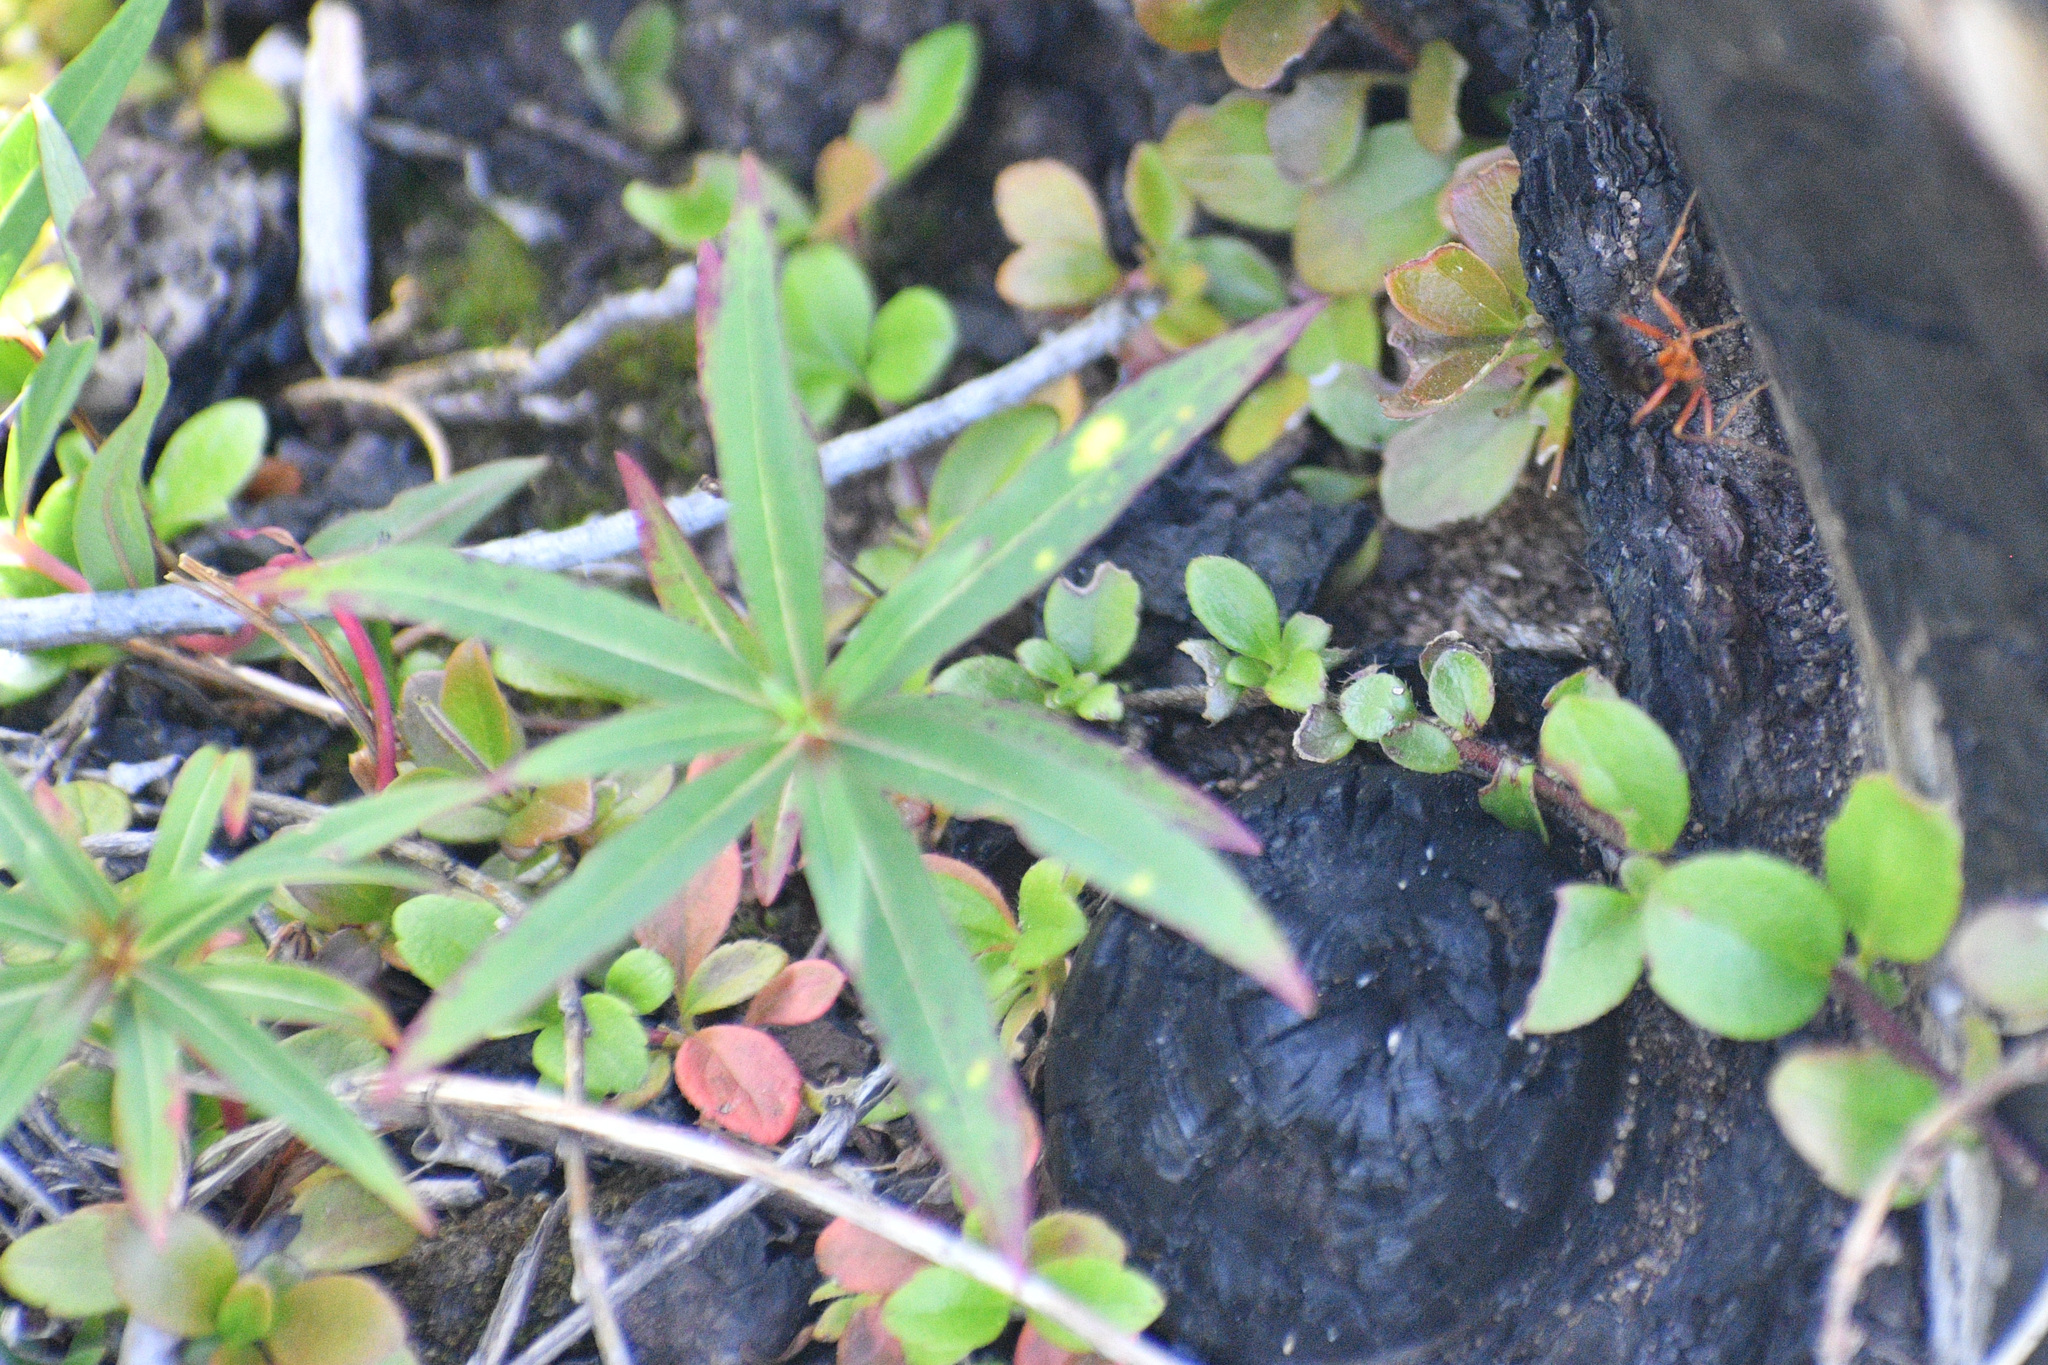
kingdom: Plantae
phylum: Tracheophyta
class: Magnoliopsida
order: Myrtales
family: Onagraceae
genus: Chamaenerion
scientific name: Chamaenerion angustifolium
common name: Fireweed
